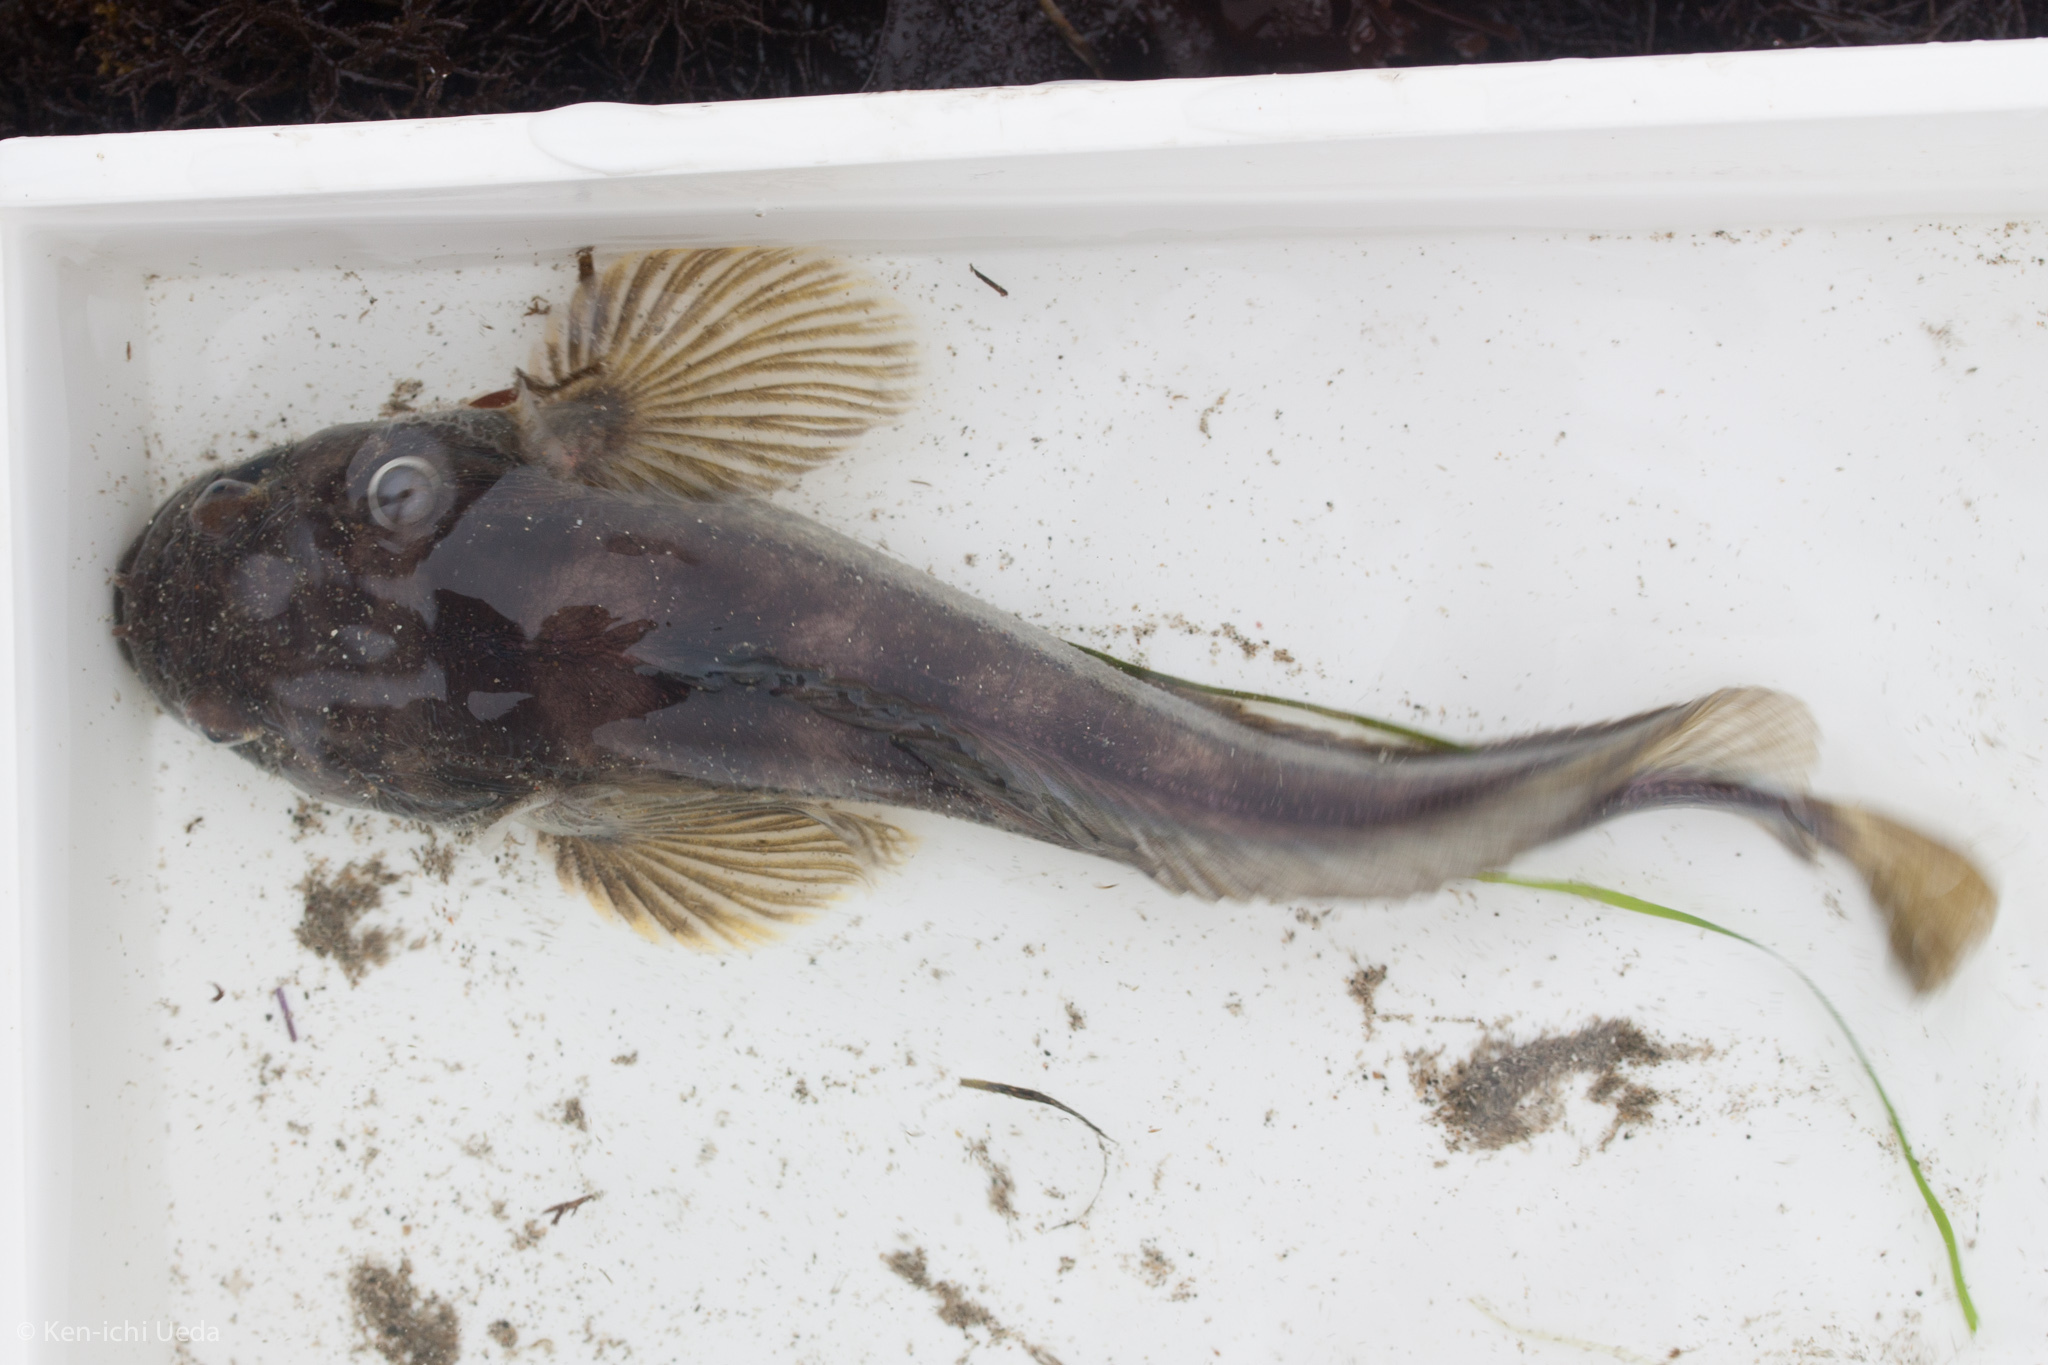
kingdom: Animalia
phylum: Chordata
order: Batrachoidiformes
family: Batrachoididae
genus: Porichthys
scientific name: Porichthys notatus
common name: Plainfin midshipman
